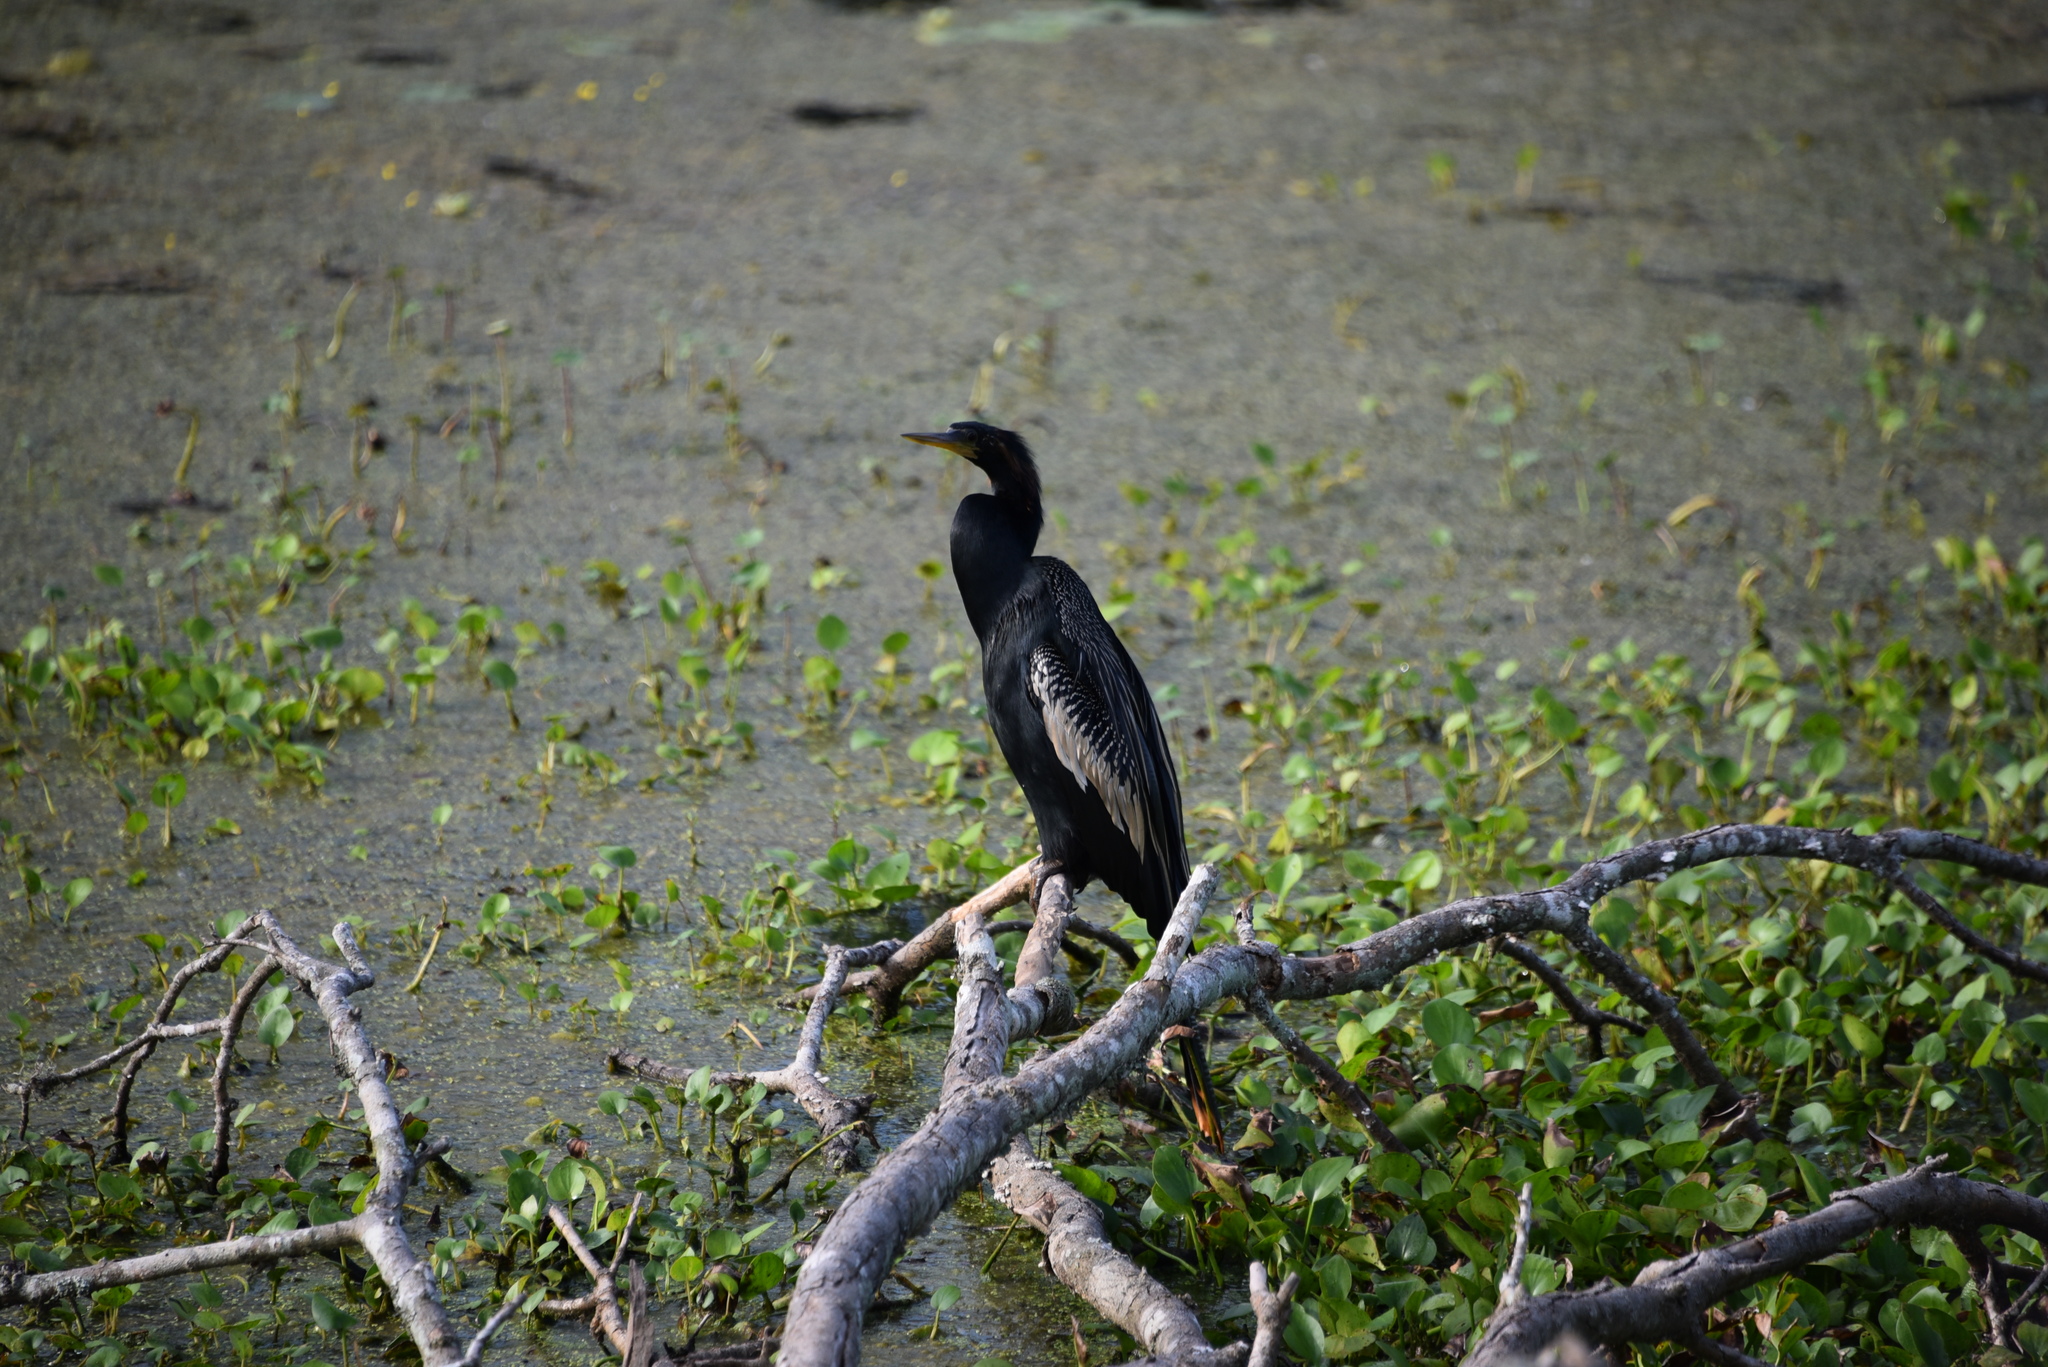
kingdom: Animalia
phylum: Chordata
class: Aves
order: Suliformes
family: Anhingidae
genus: Anhinga
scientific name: Anhinga anhinga
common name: Anhinga
